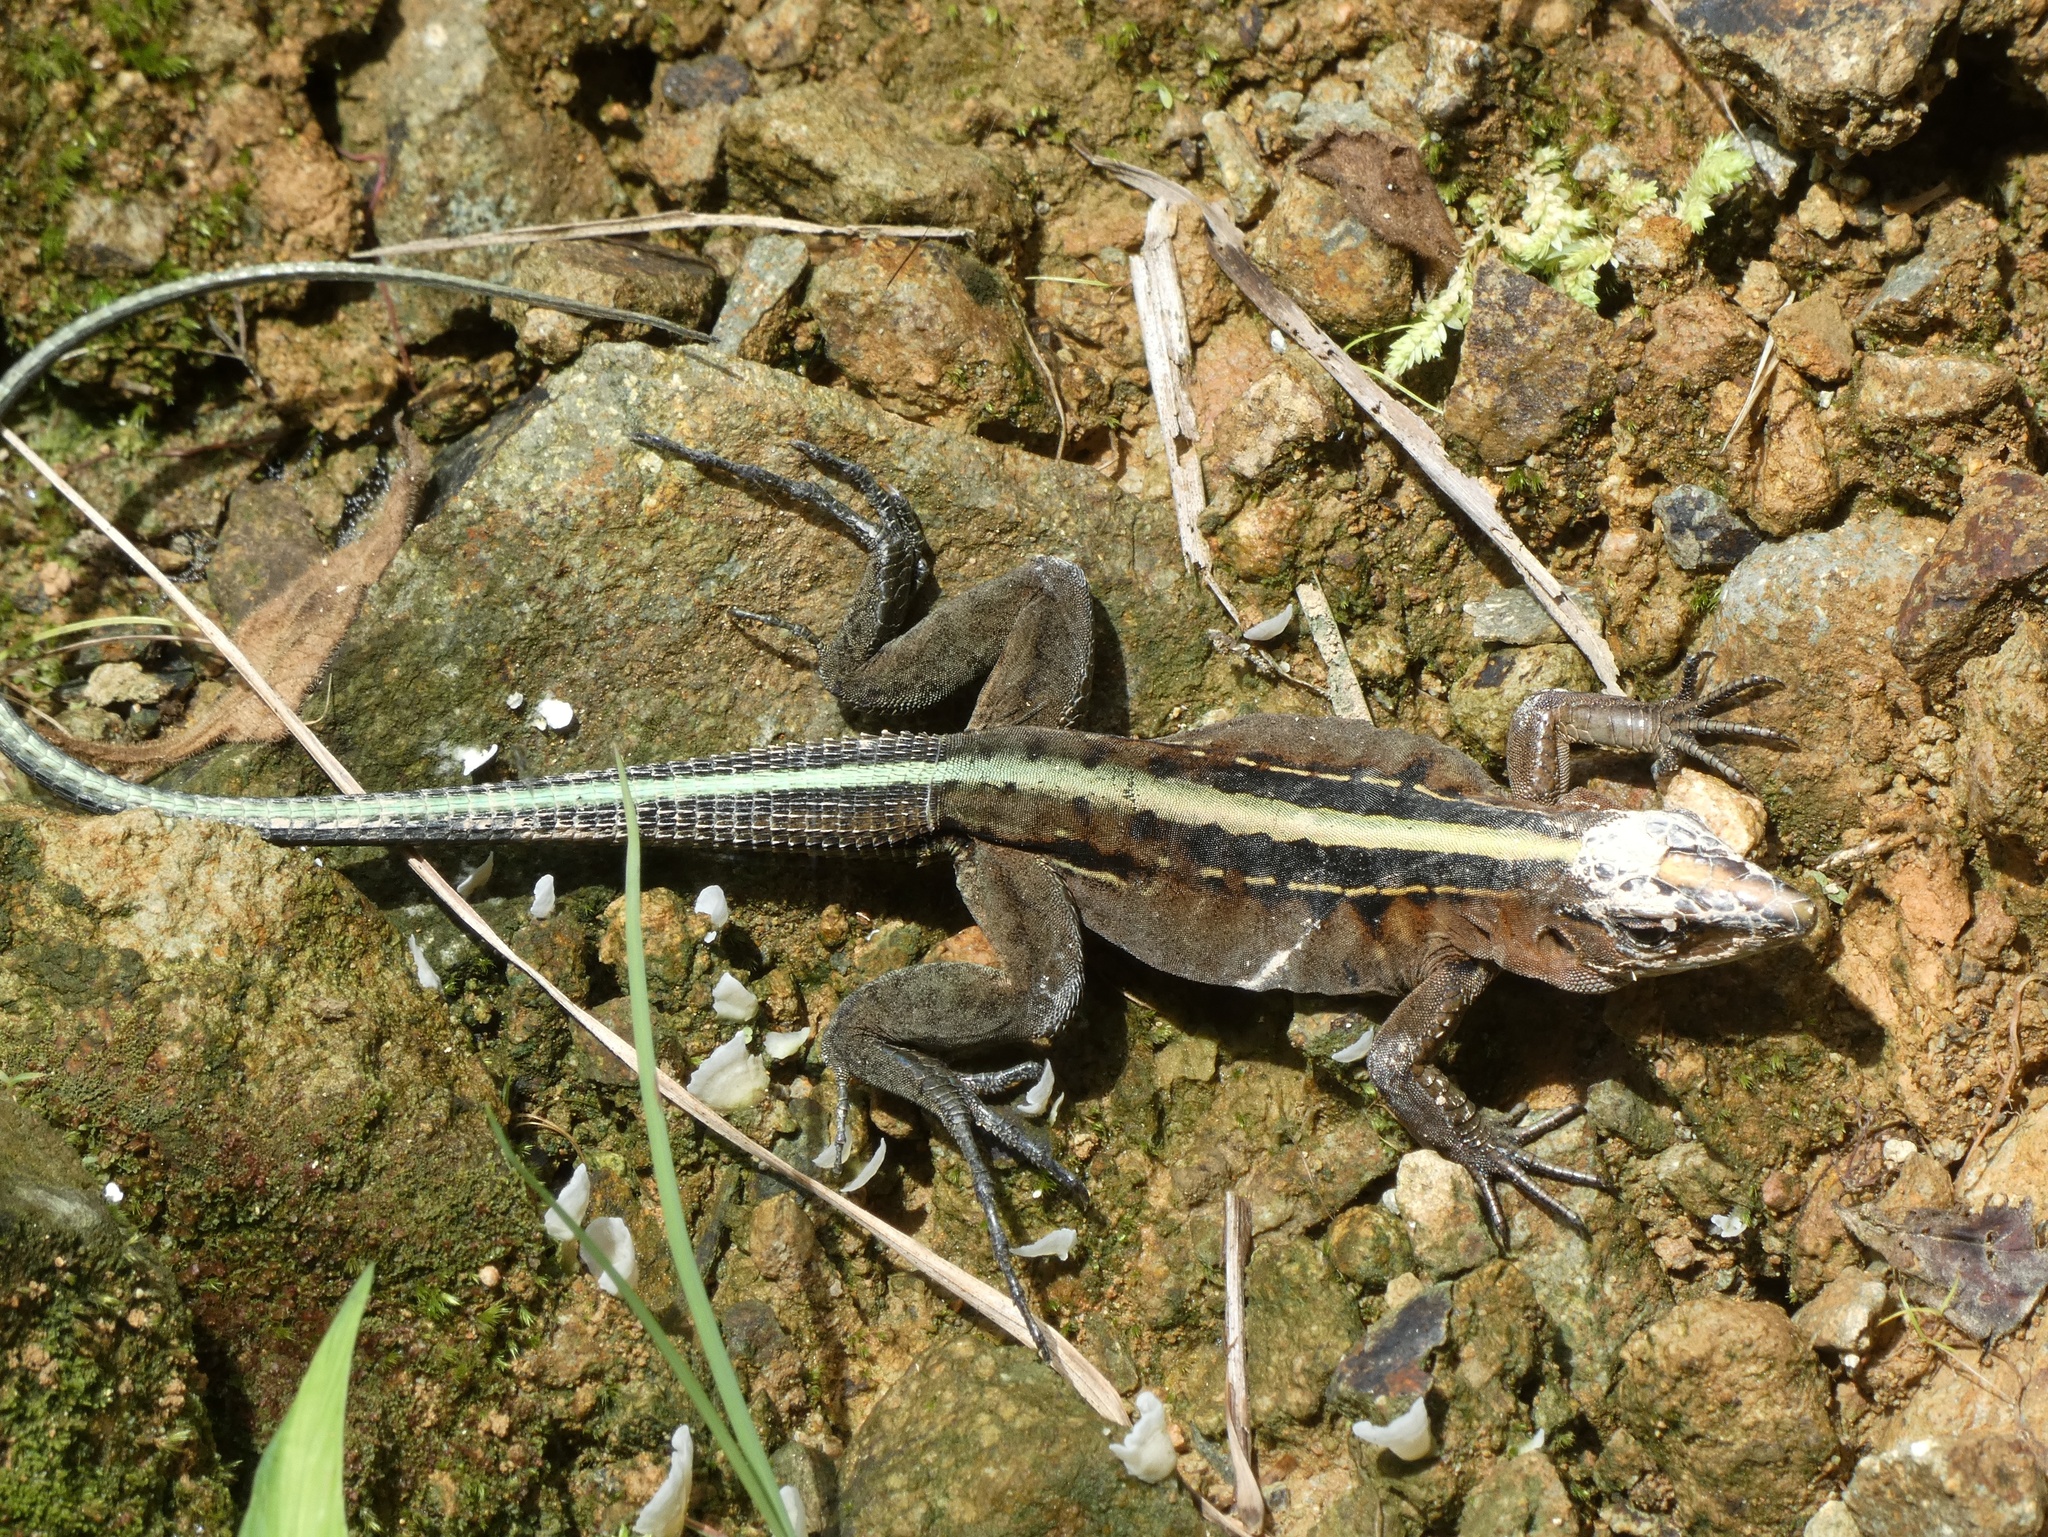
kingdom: Animalia
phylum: Chordata
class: Squamata
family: Teiidae
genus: Holcosus
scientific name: Holcosus festivus
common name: Middle american ameiva
